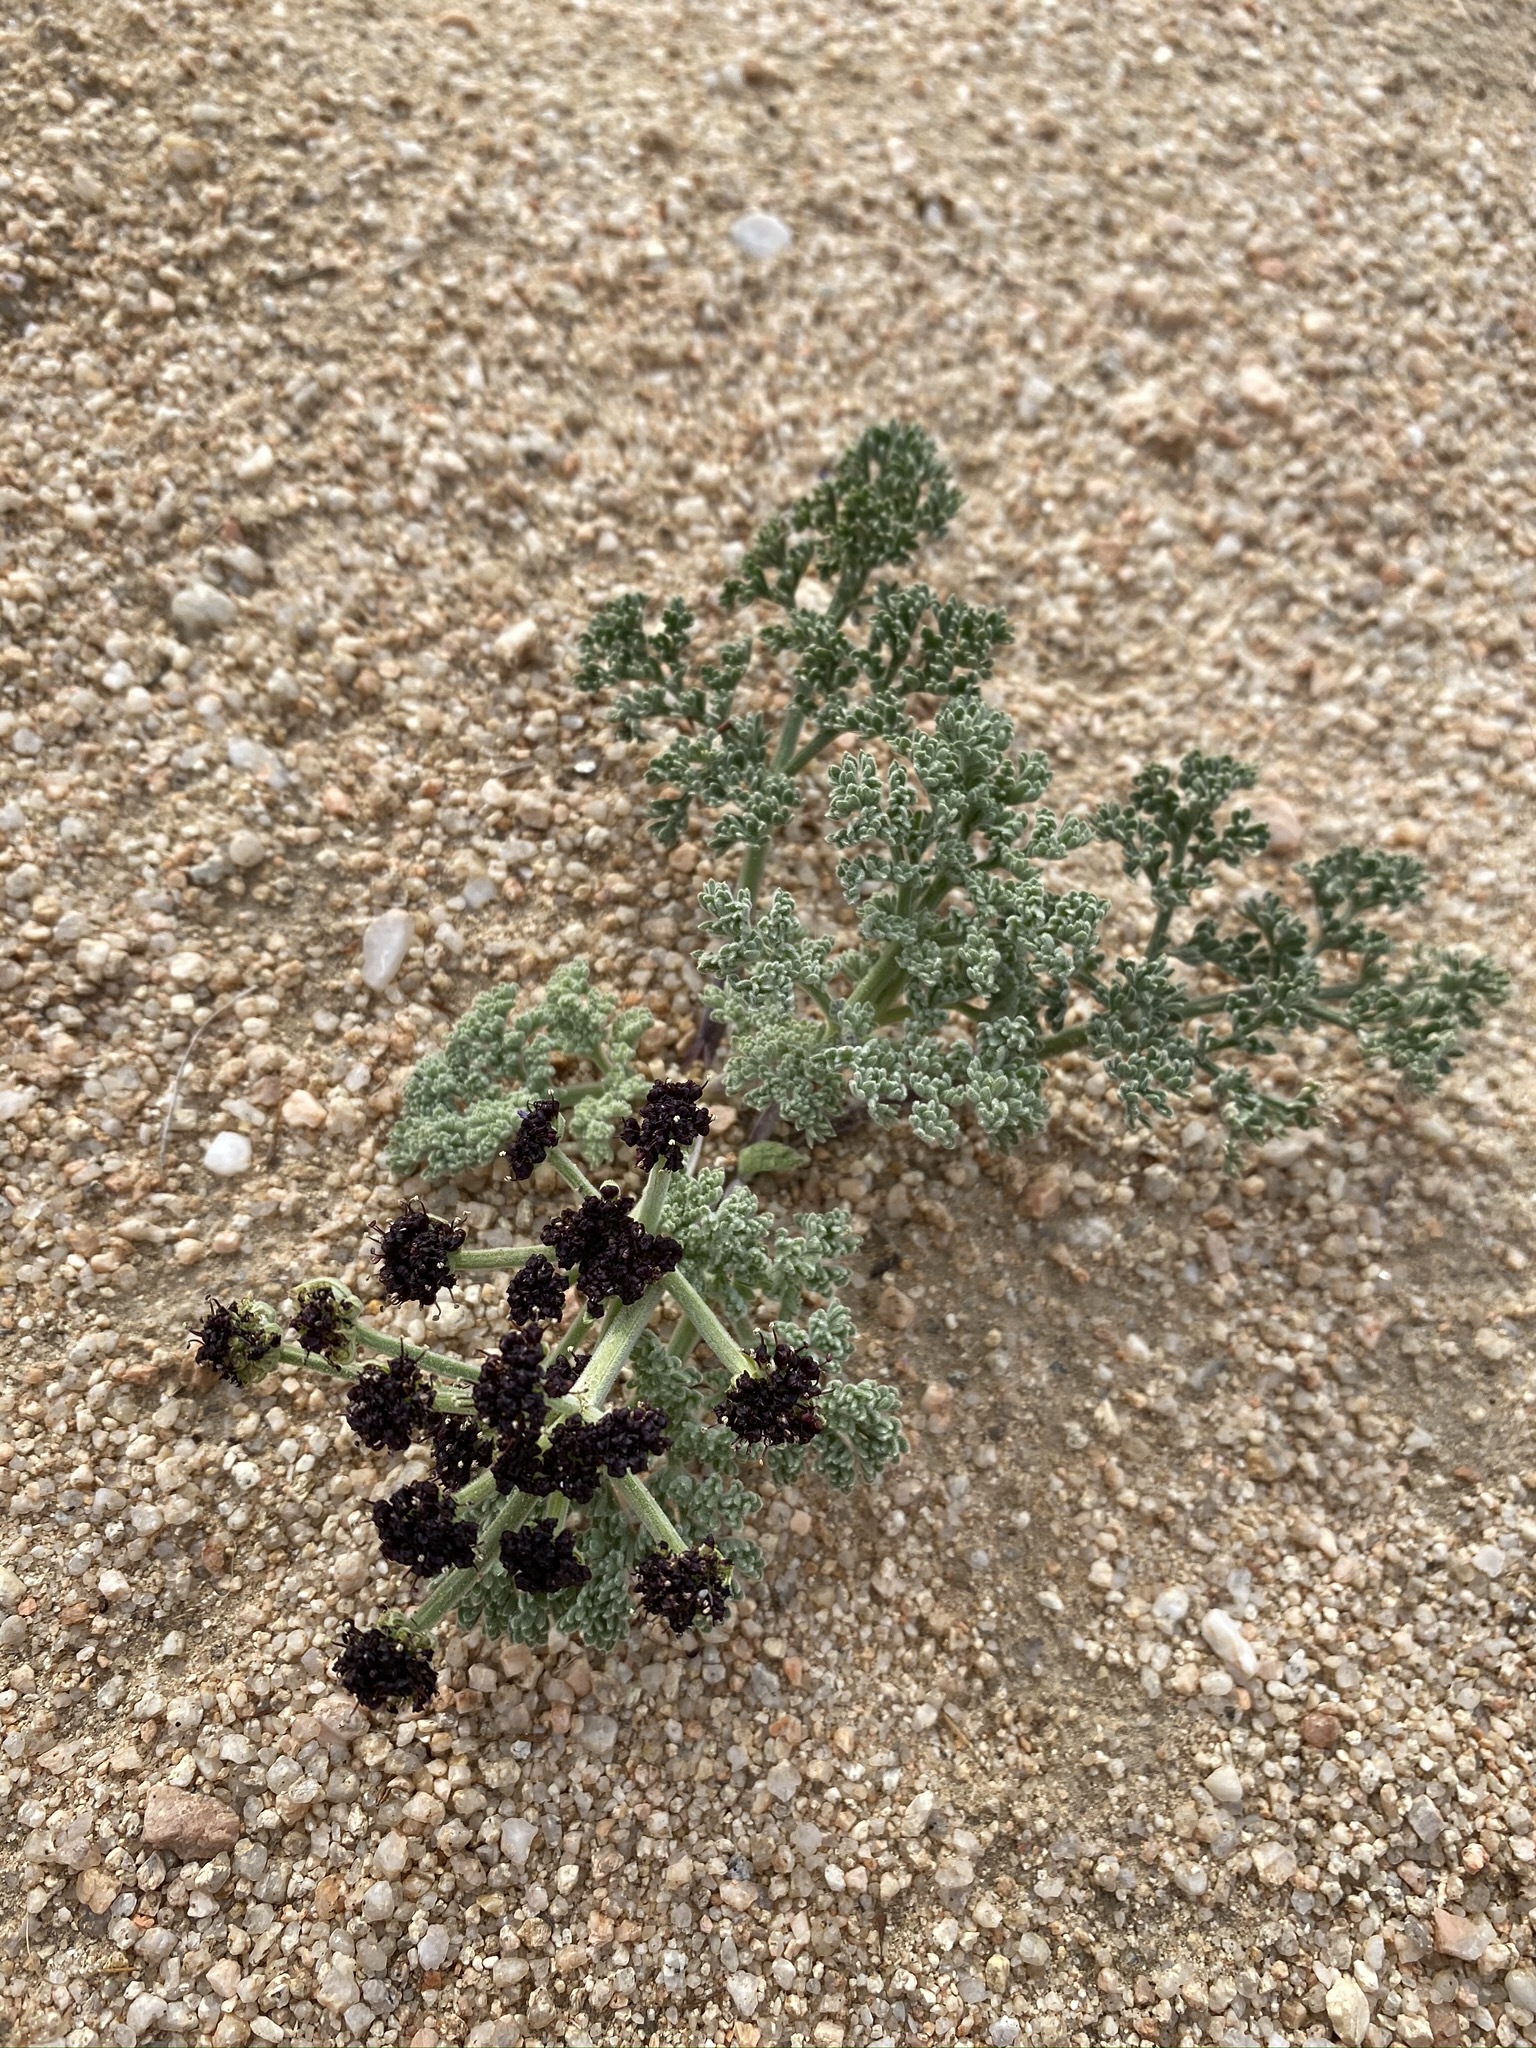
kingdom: Plantae
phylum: Tracheophyta
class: Magnoliopsida
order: Apiales
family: Apiaceae
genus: Lomatium
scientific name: Lomatium mohavense
